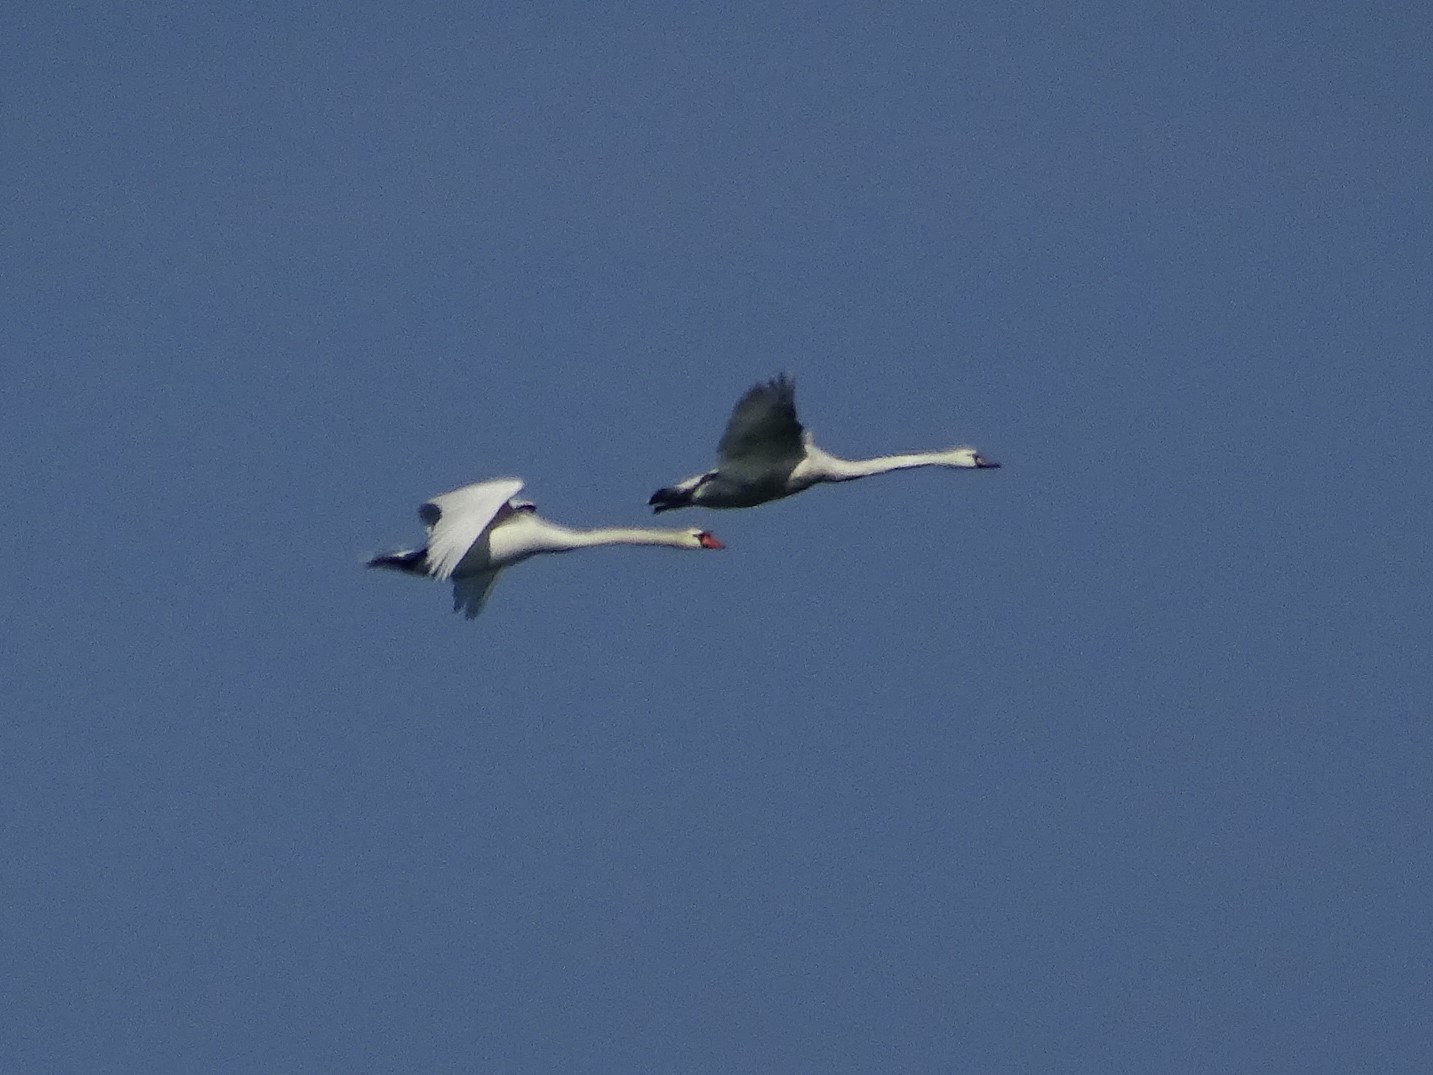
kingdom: Animalia
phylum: Chordata
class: Aves
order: Anseriformes
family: Anatidae
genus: Cygnus
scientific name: Cygnus olor
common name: Mute swan
